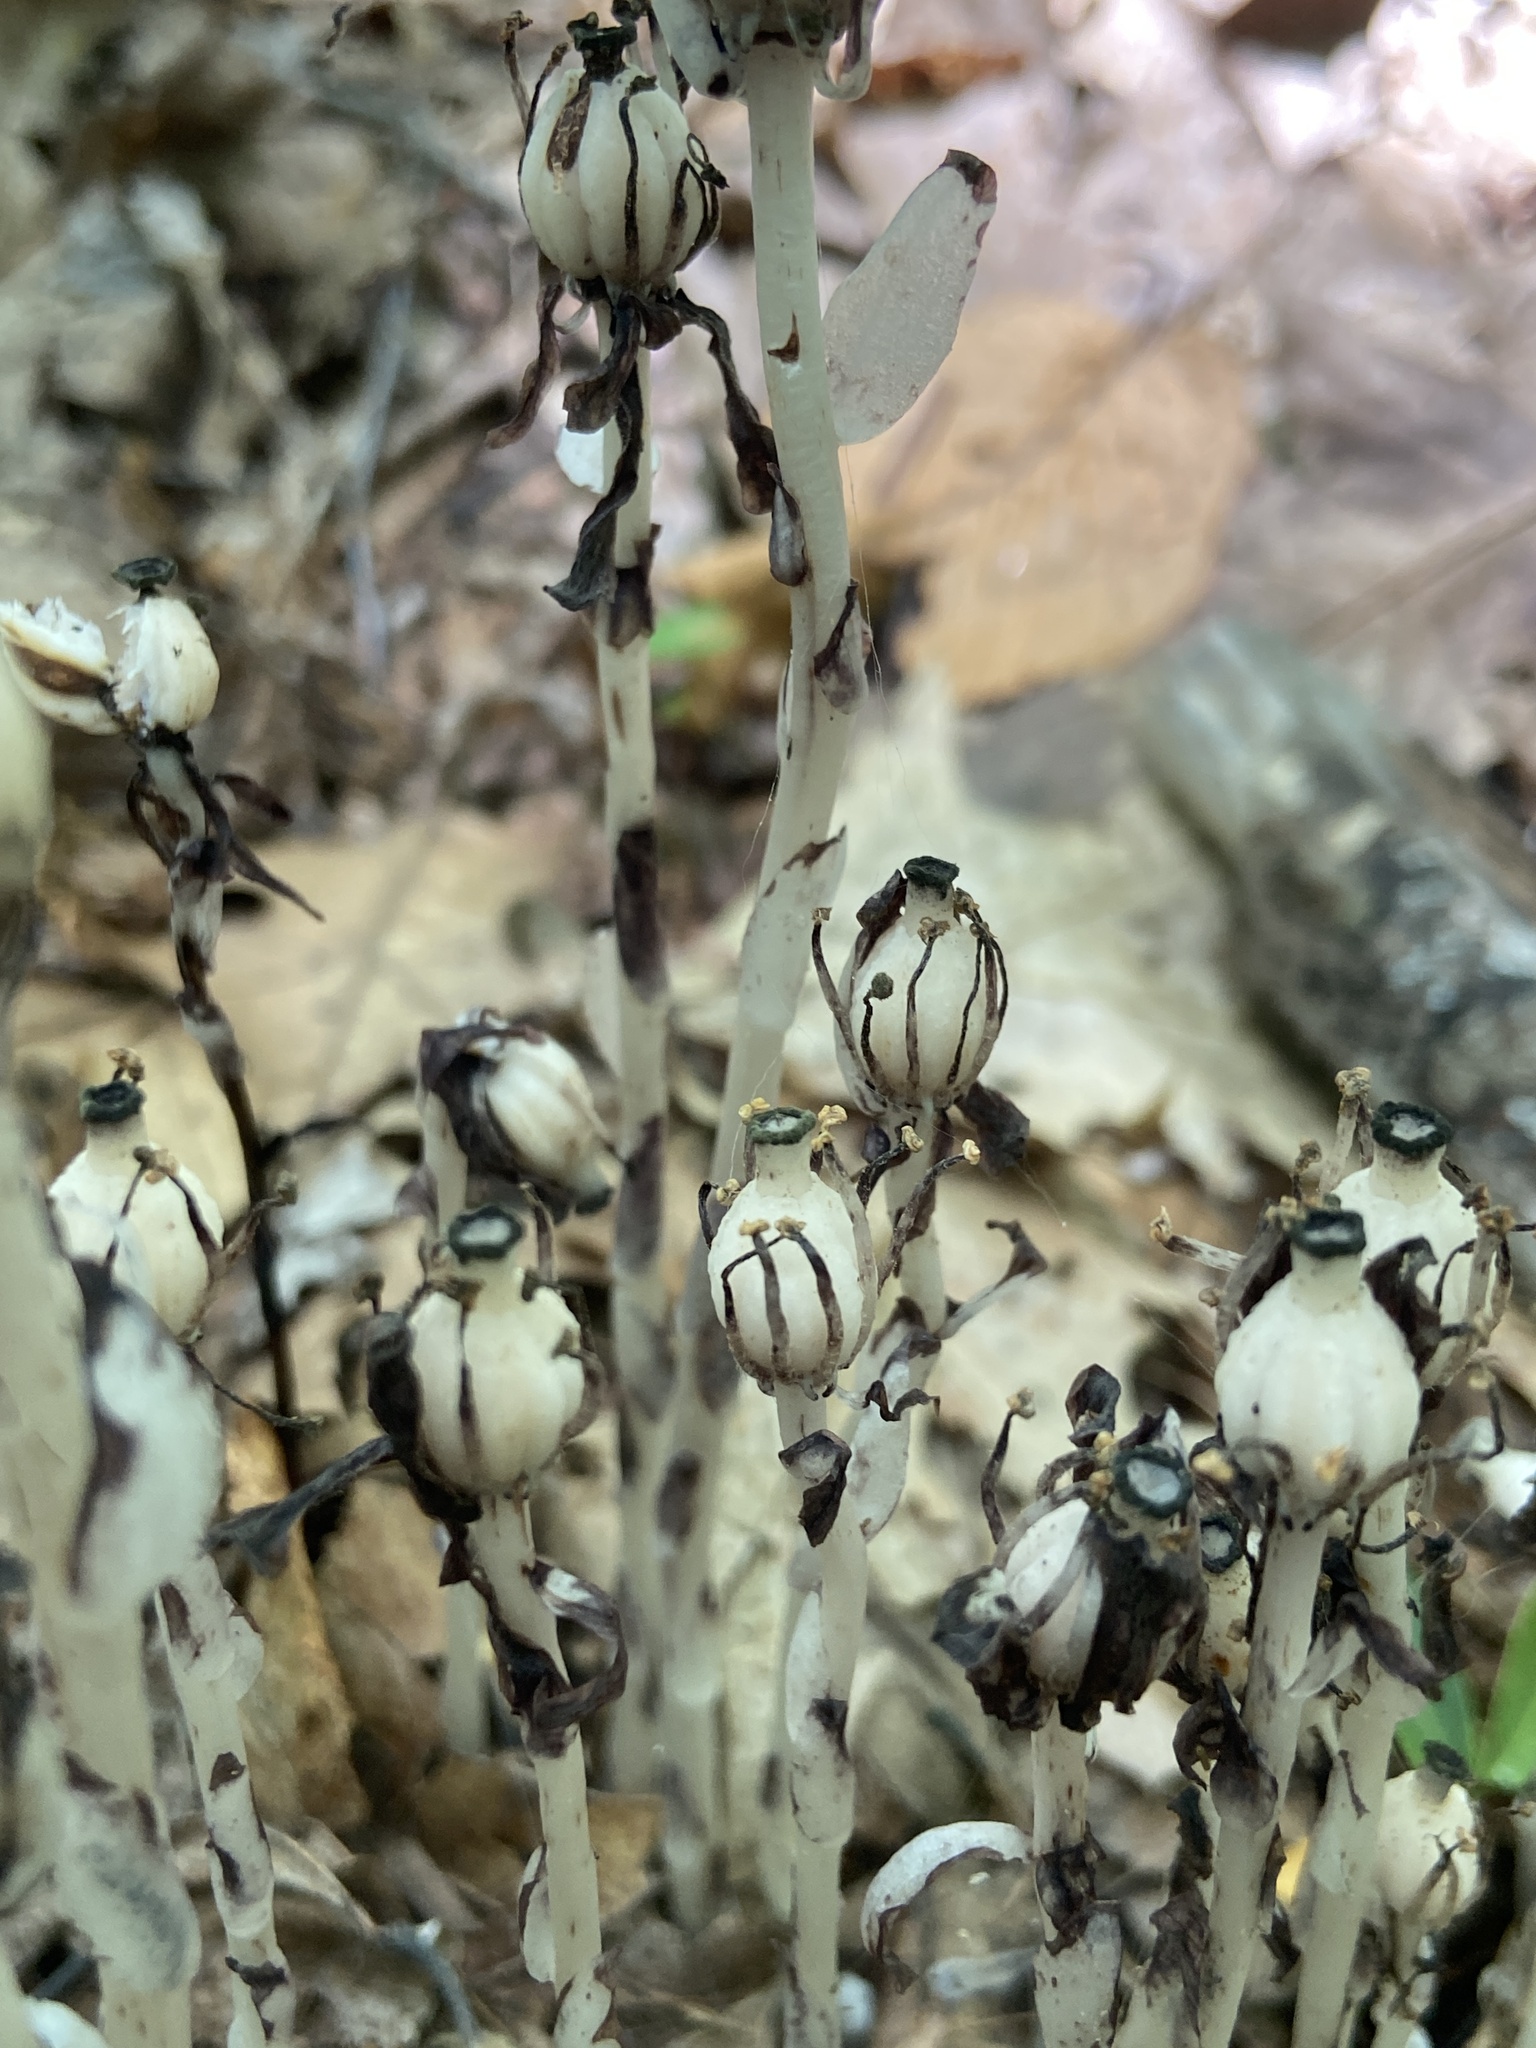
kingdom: Plantae
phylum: Tracheophyta
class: Magnoliopsida
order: Ericales
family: Ericaceae
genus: Monotropa
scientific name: Monotropa uniflora
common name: Convulsion root
